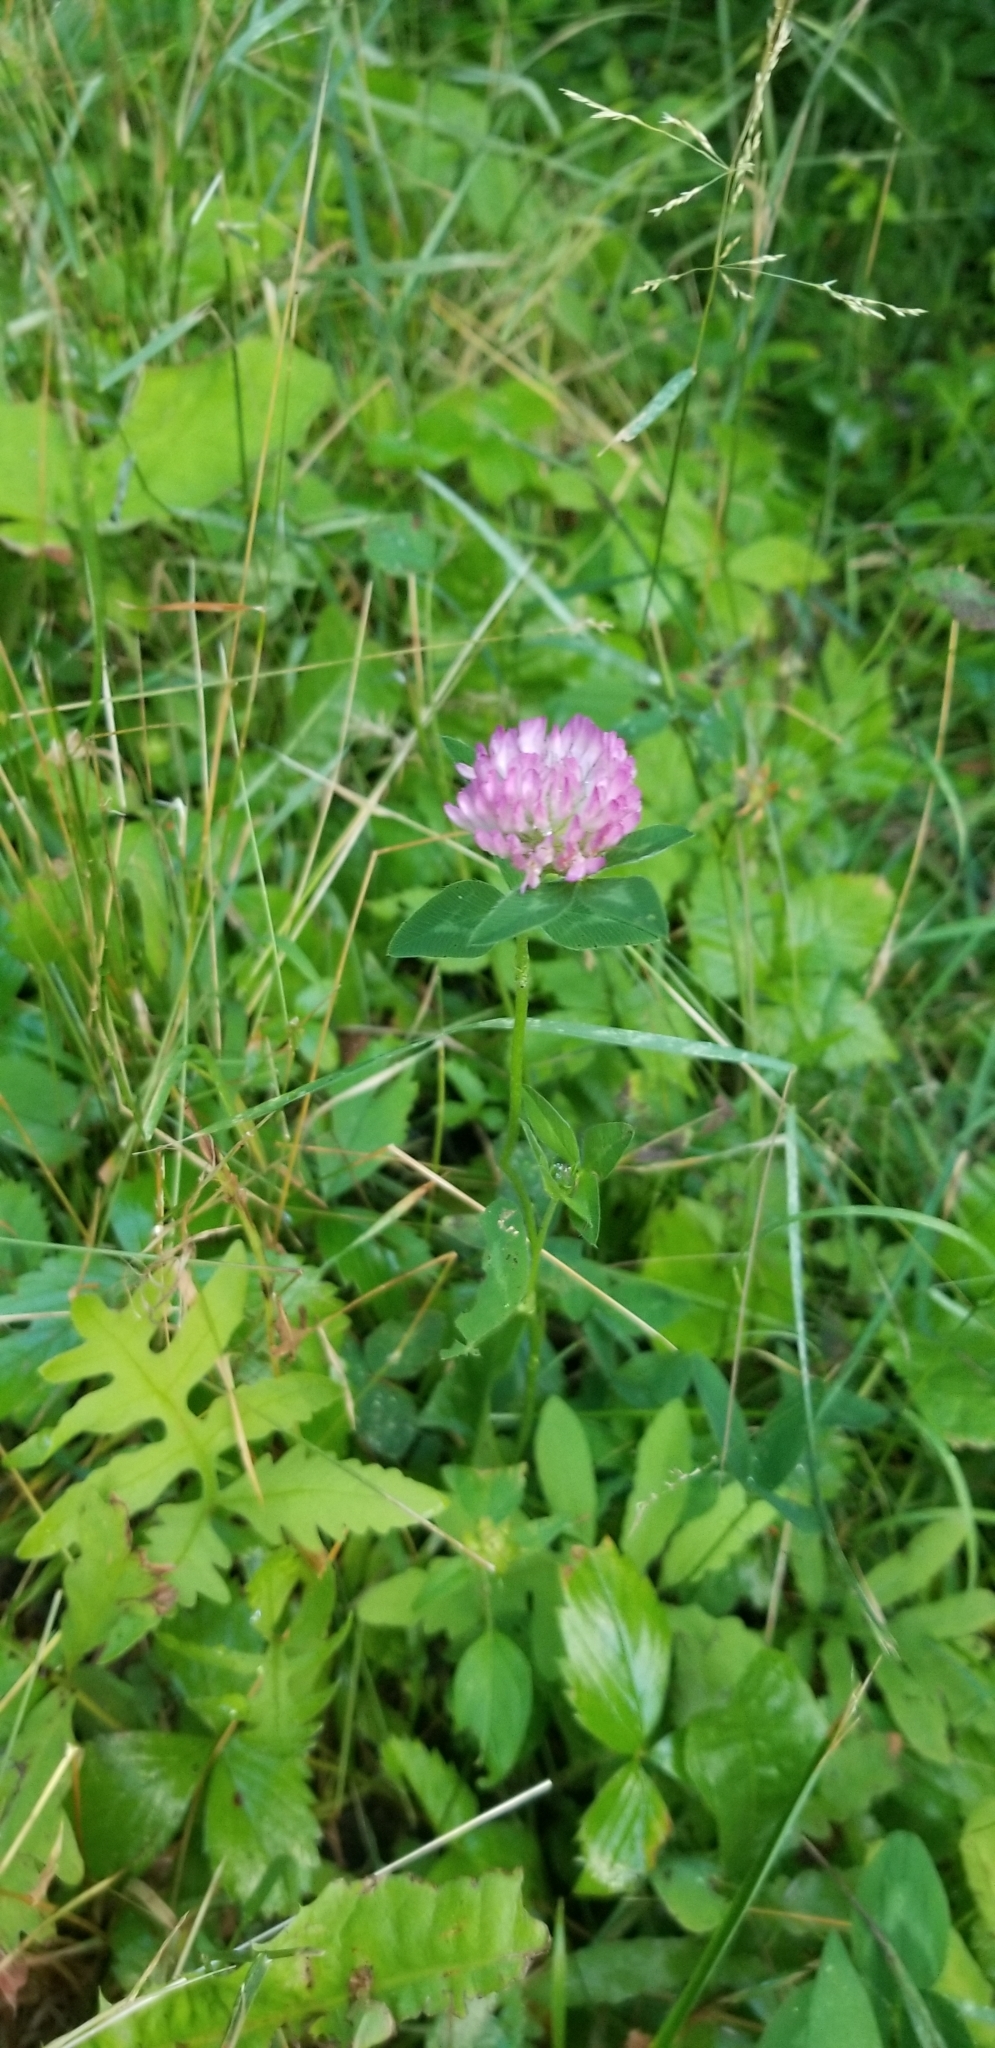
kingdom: Plantae
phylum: Tracheophyta
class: Magnoliopsida
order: Fabales
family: Fabaceae
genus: Trifolium
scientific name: Trifolium pratense
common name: Red clover
